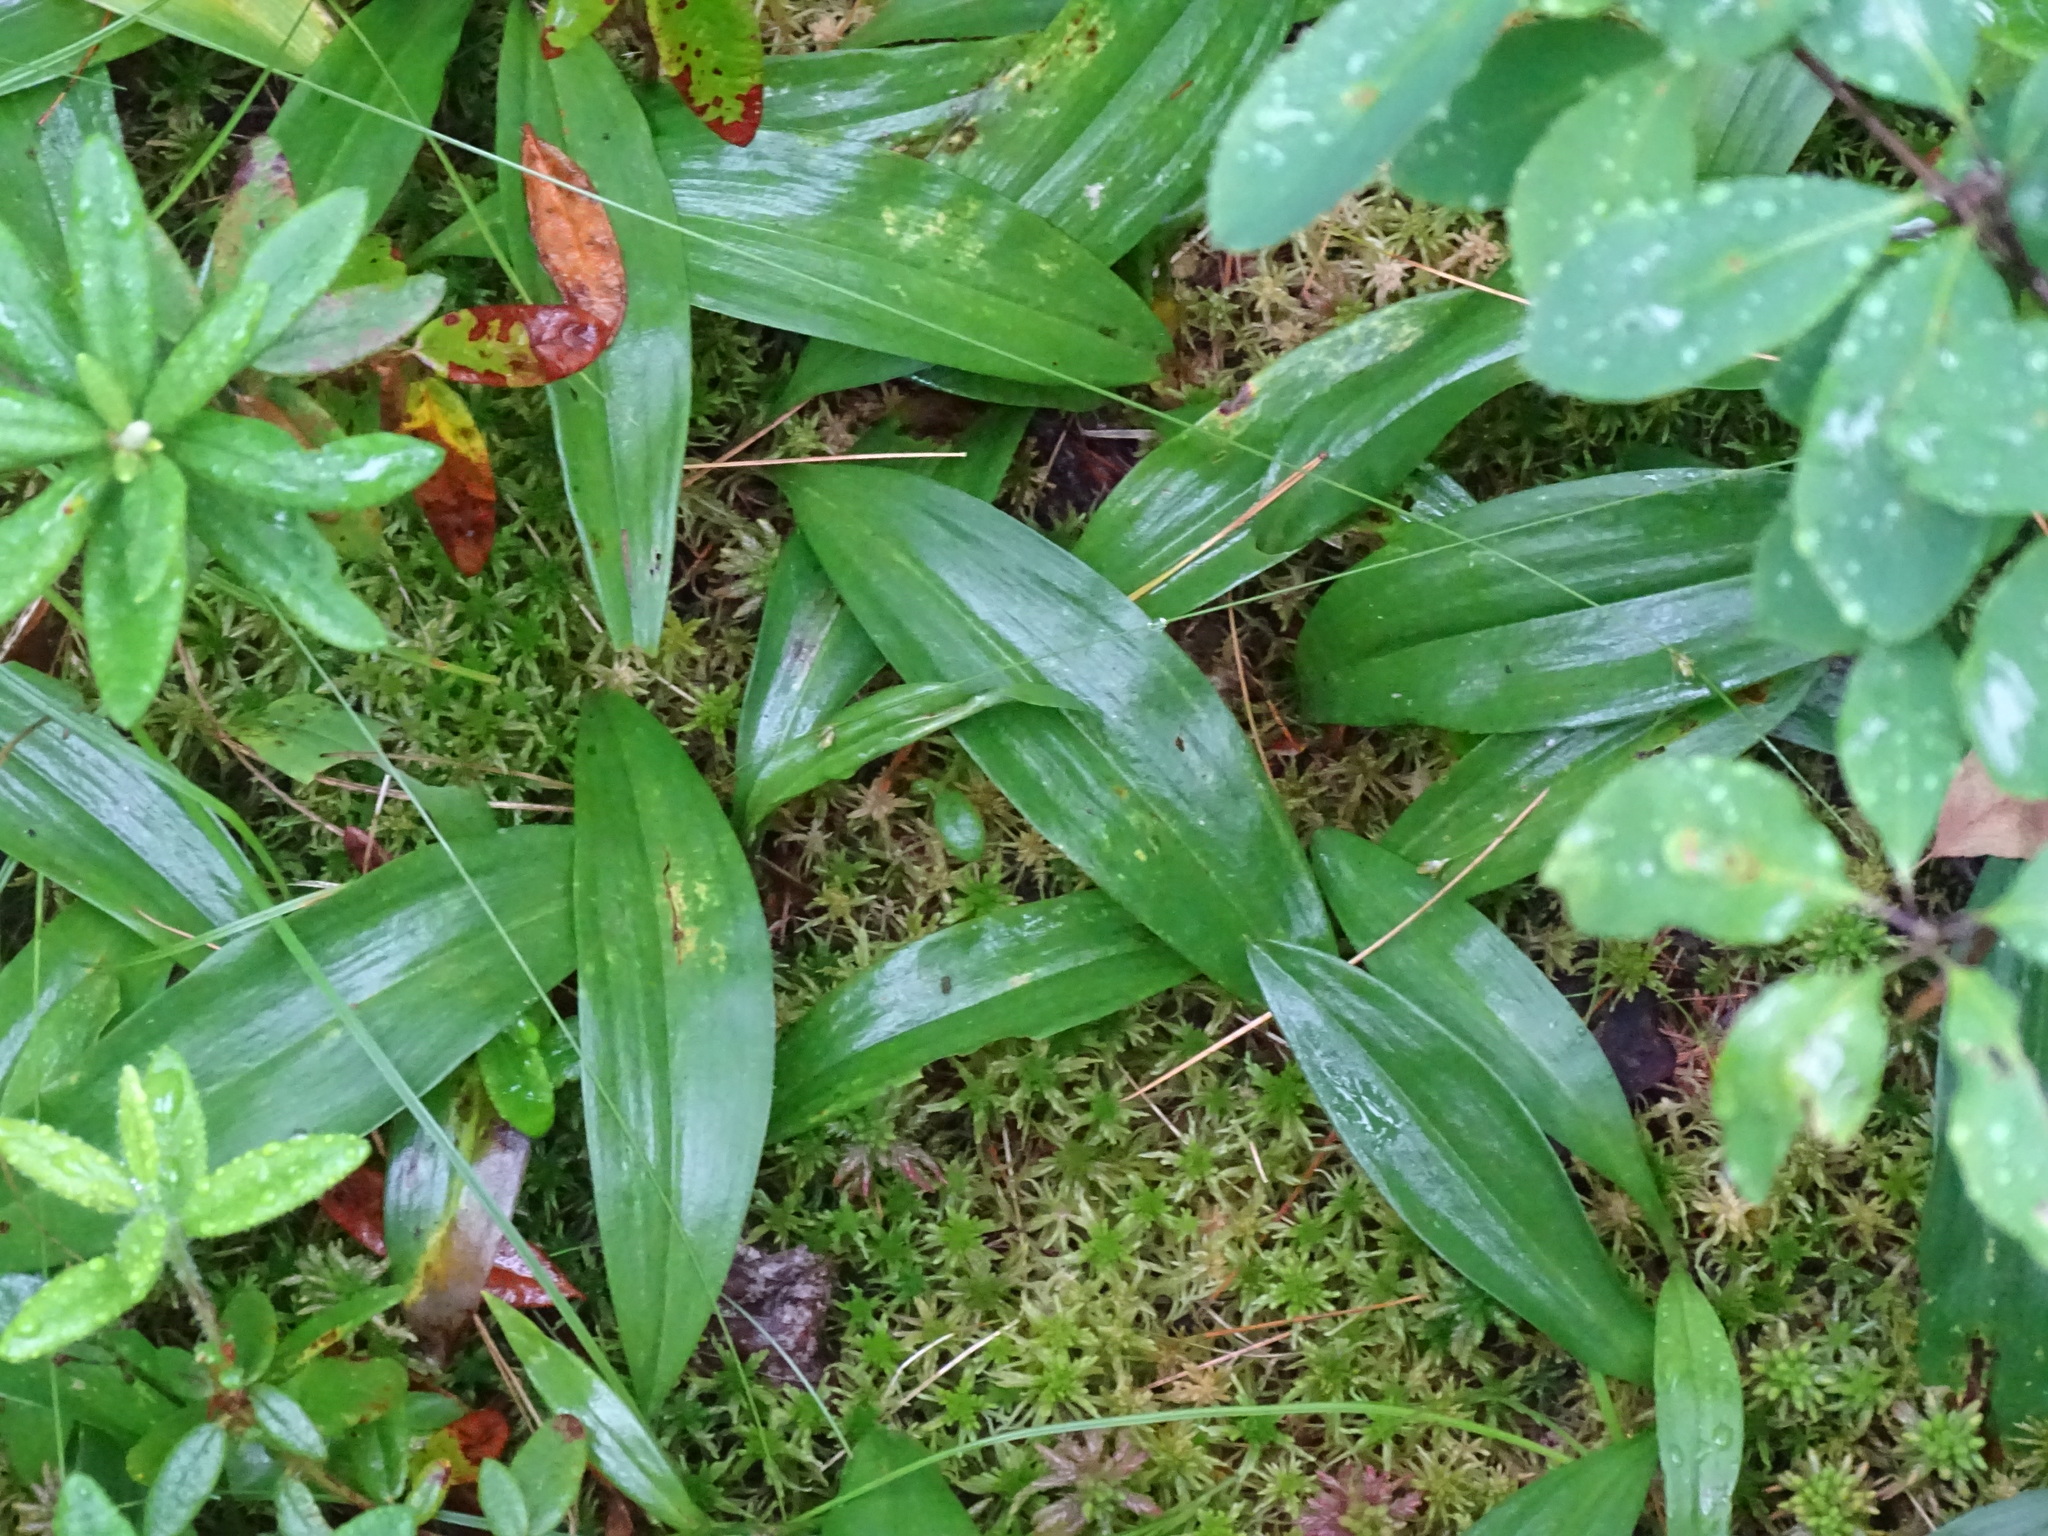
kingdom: Plantae
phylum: Tracheophyta
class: Liliopsida
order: Asparagales
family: Asparagaceae
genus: Maianthemum
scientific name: Maianthemum trifolium
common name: Swamp false solomon's seal
